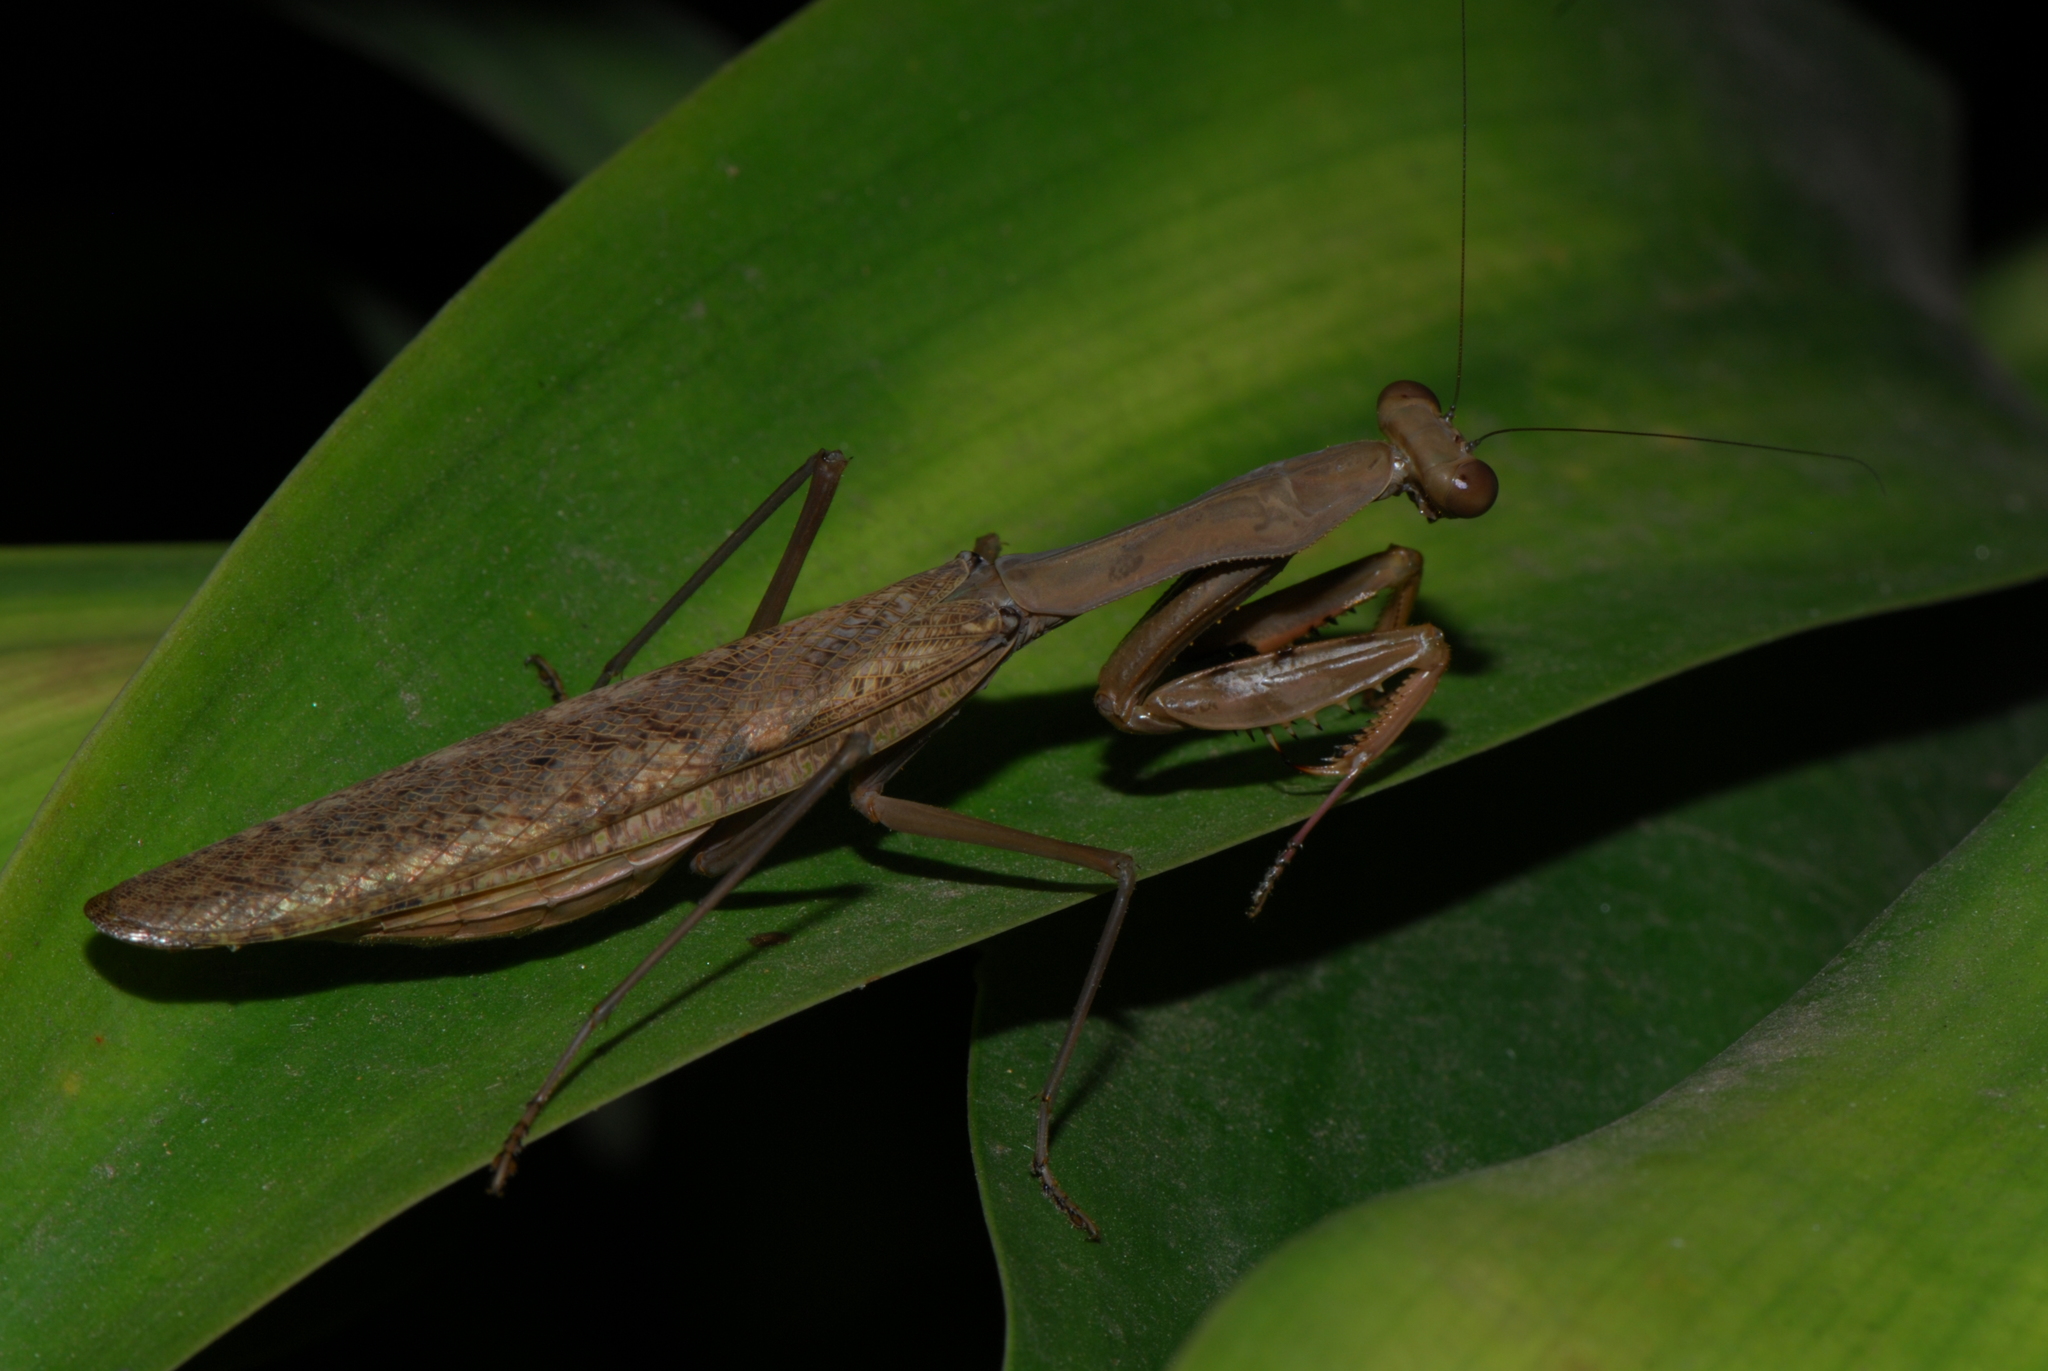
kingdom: Animalia
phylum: Arthropoda
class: Insecta
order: Mantodea
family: Mantidae
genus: Polyspilota
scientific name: Polyspilota aeruginosa
